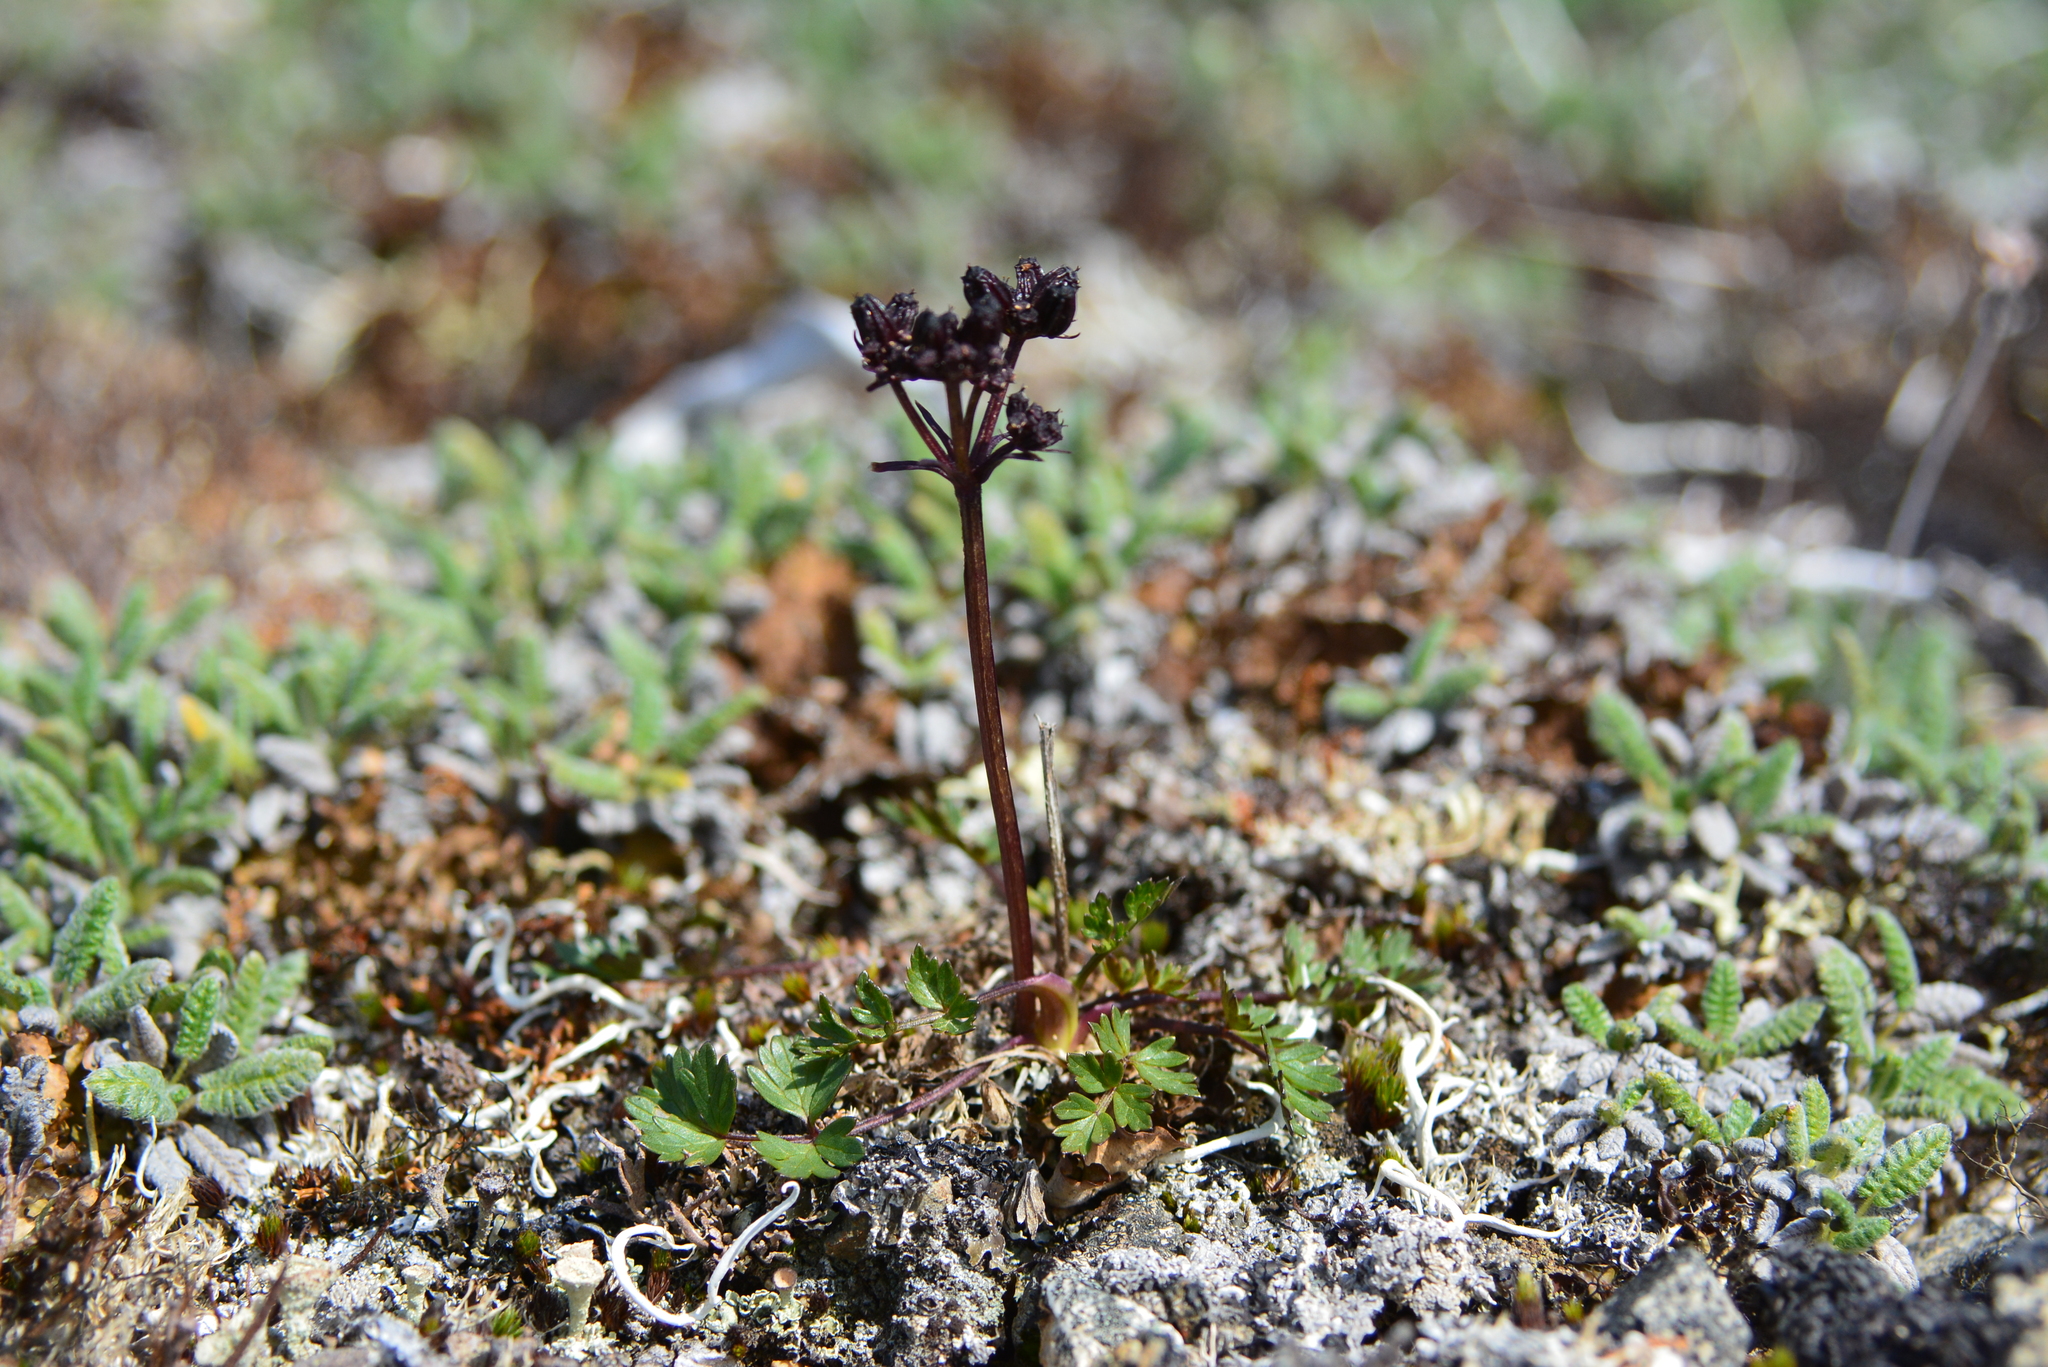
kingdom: Plantae
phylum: Tracheophyta
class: Magnoliopsida
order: Apiales
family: Apiaceae
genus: Orumbella
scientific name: Orumbella macounii
